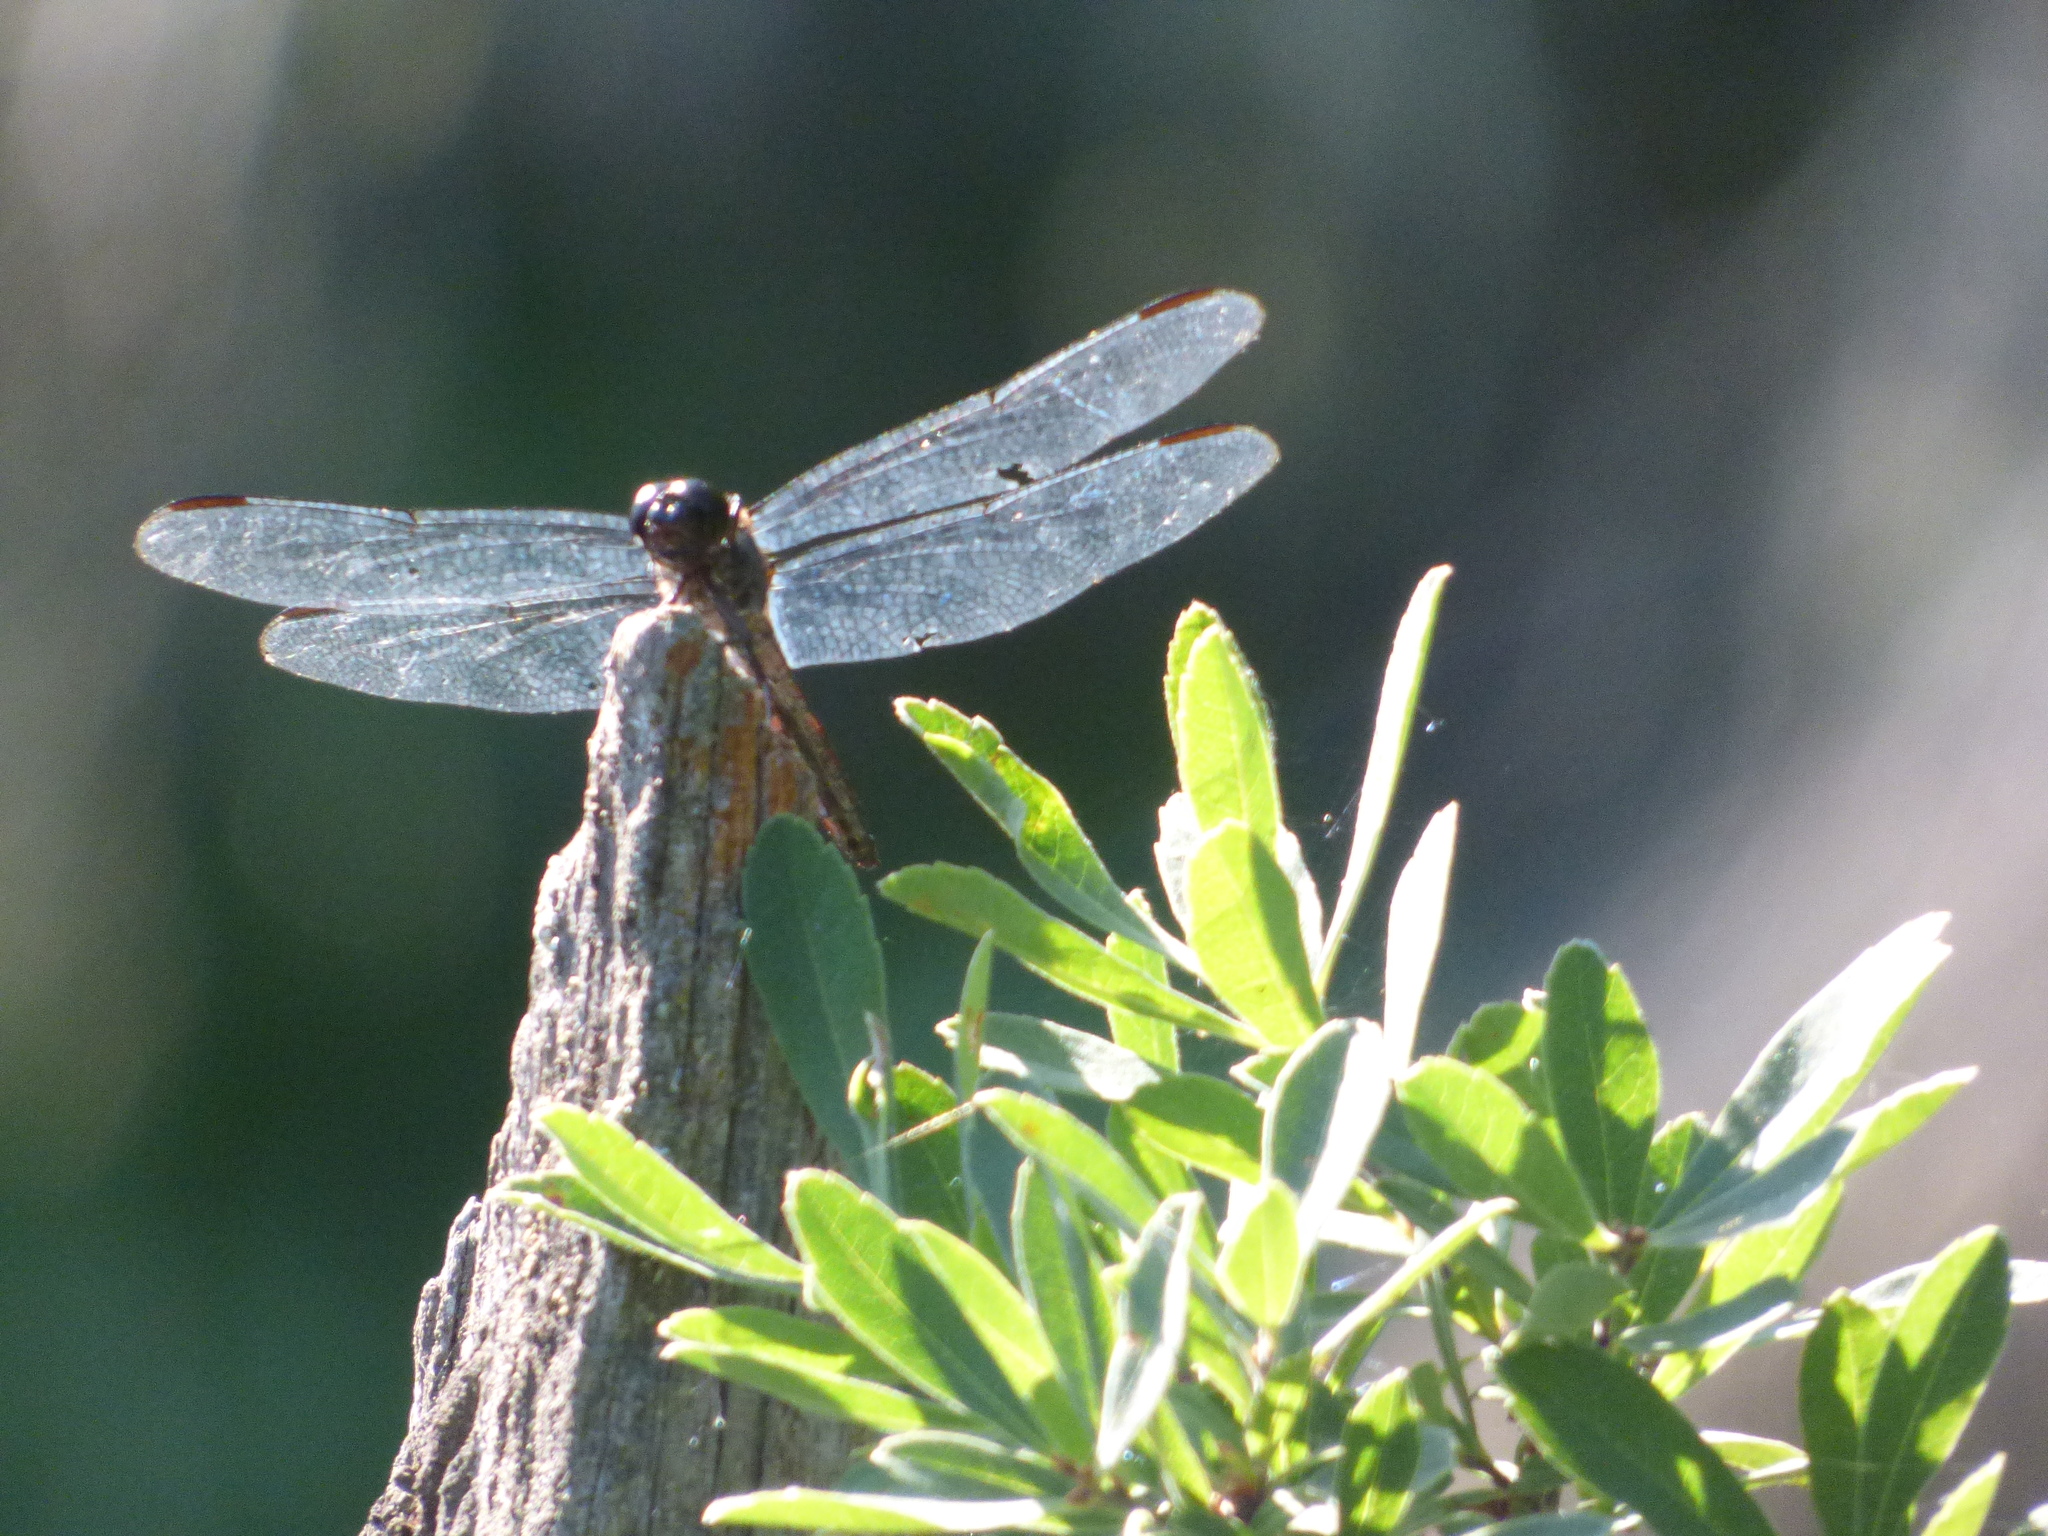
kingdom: Animalia
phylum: Arthropoda
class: Insecta
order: Odonata
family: Libellulidae
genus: Libellula
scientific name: Libellula incesta
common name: Slaty skimmer
